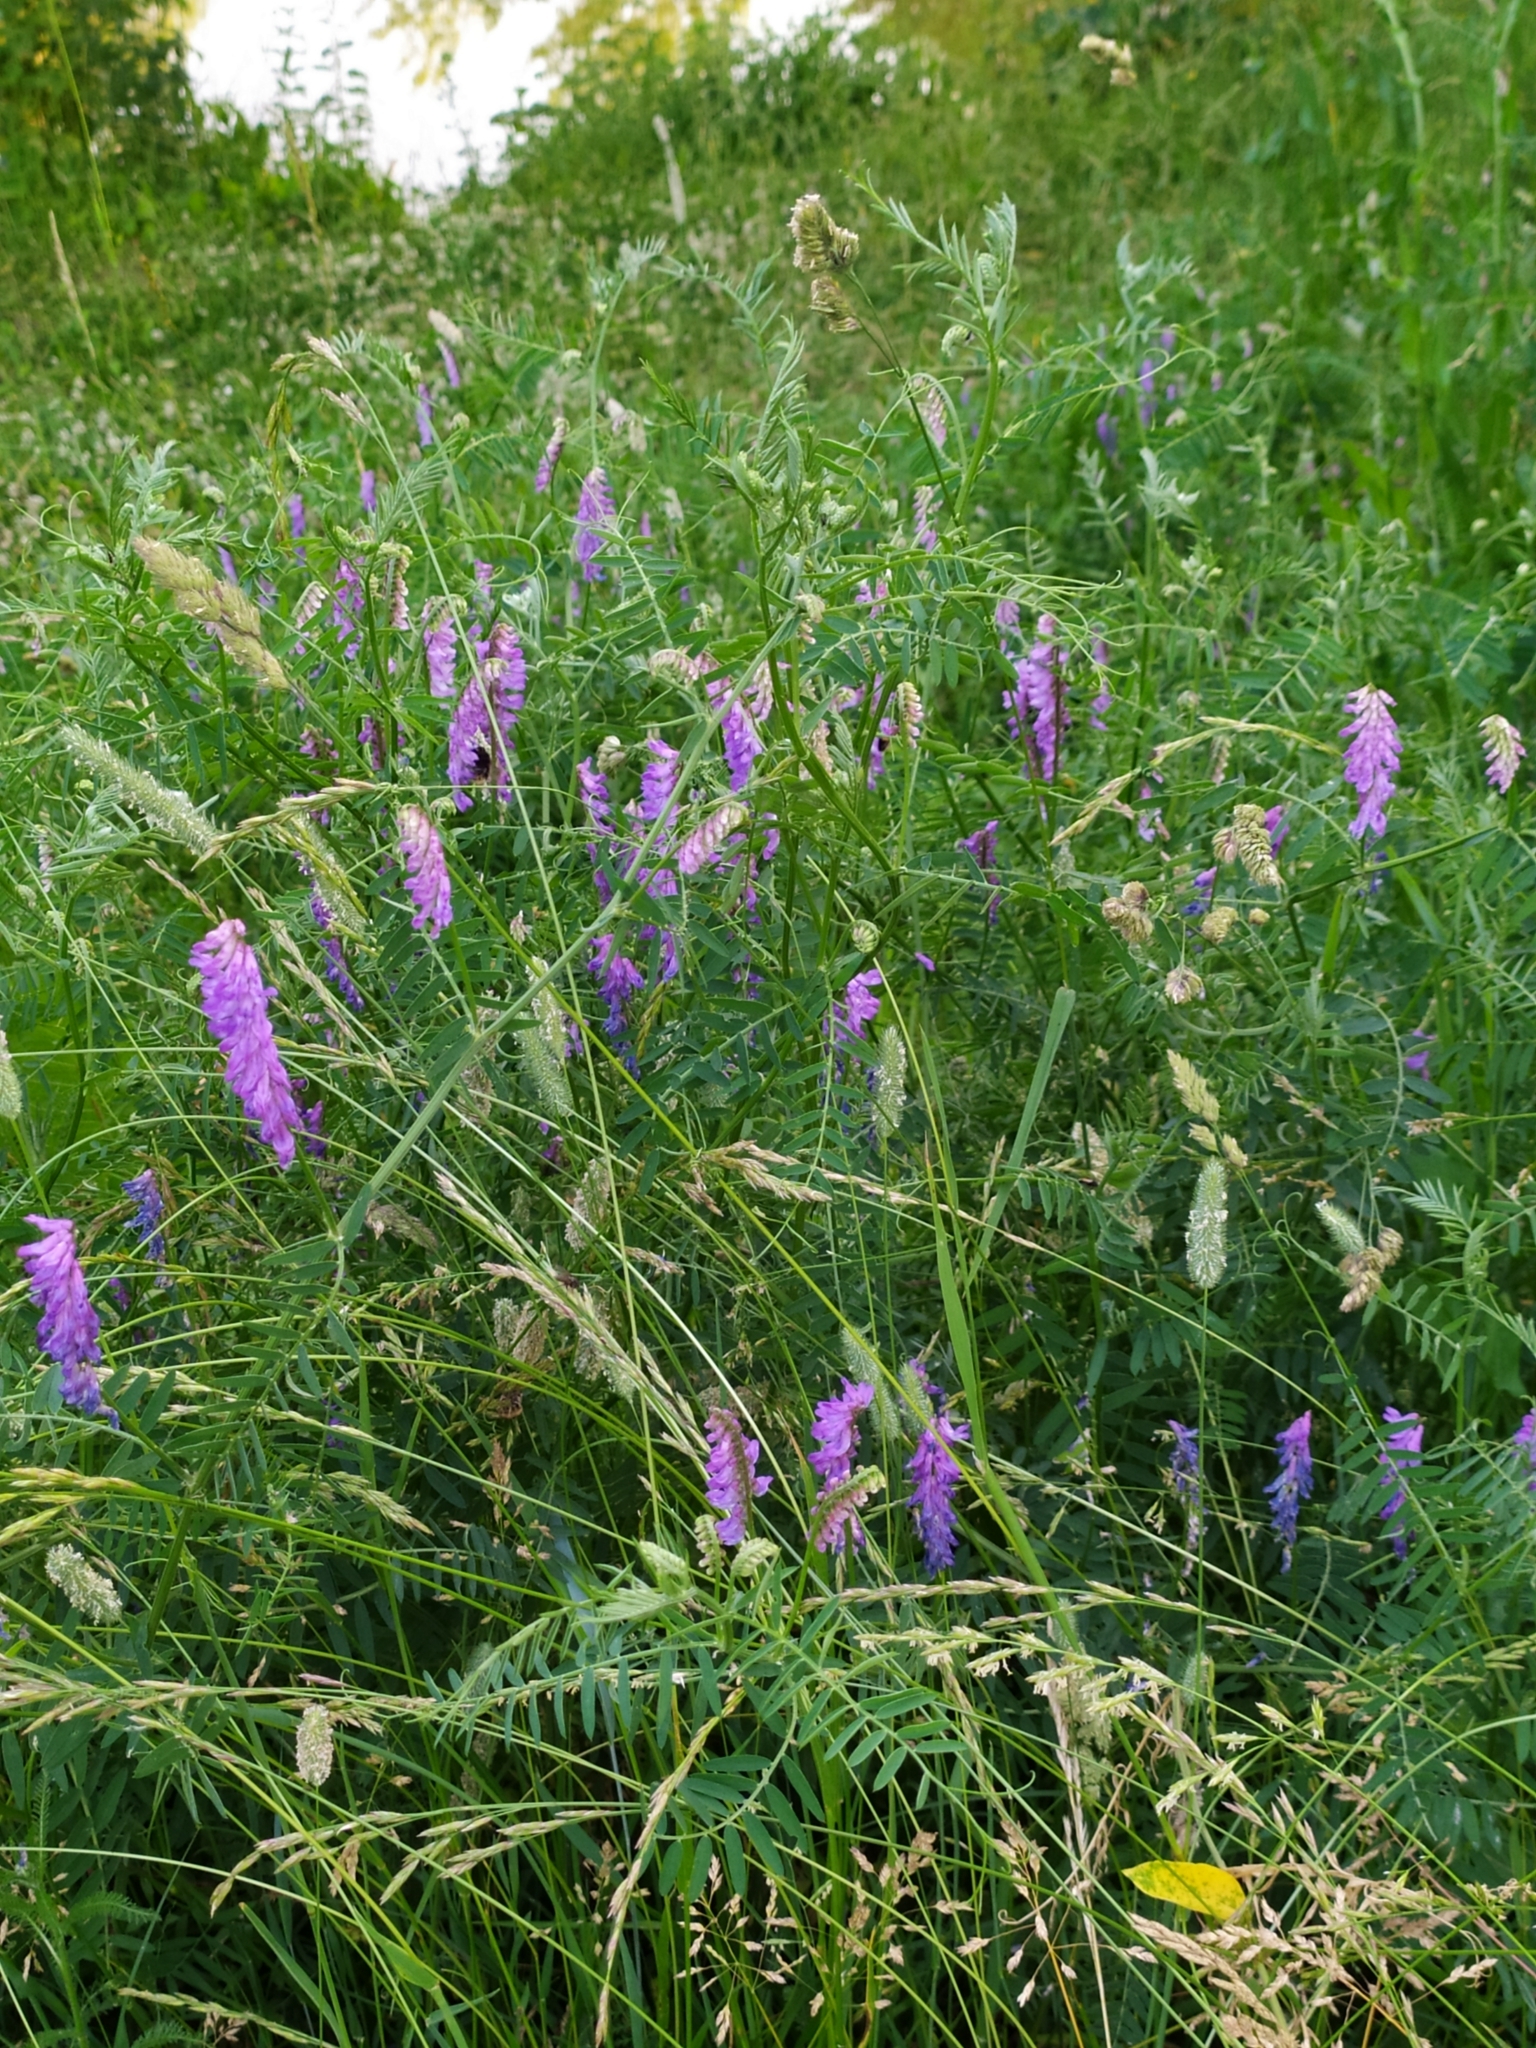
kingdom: Plantae
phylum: Tracheophyta
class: Magnoliopsida
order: Fabales
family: Fabaceae
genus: Vicia
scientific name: Vicia cracca
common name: Bird vetch
